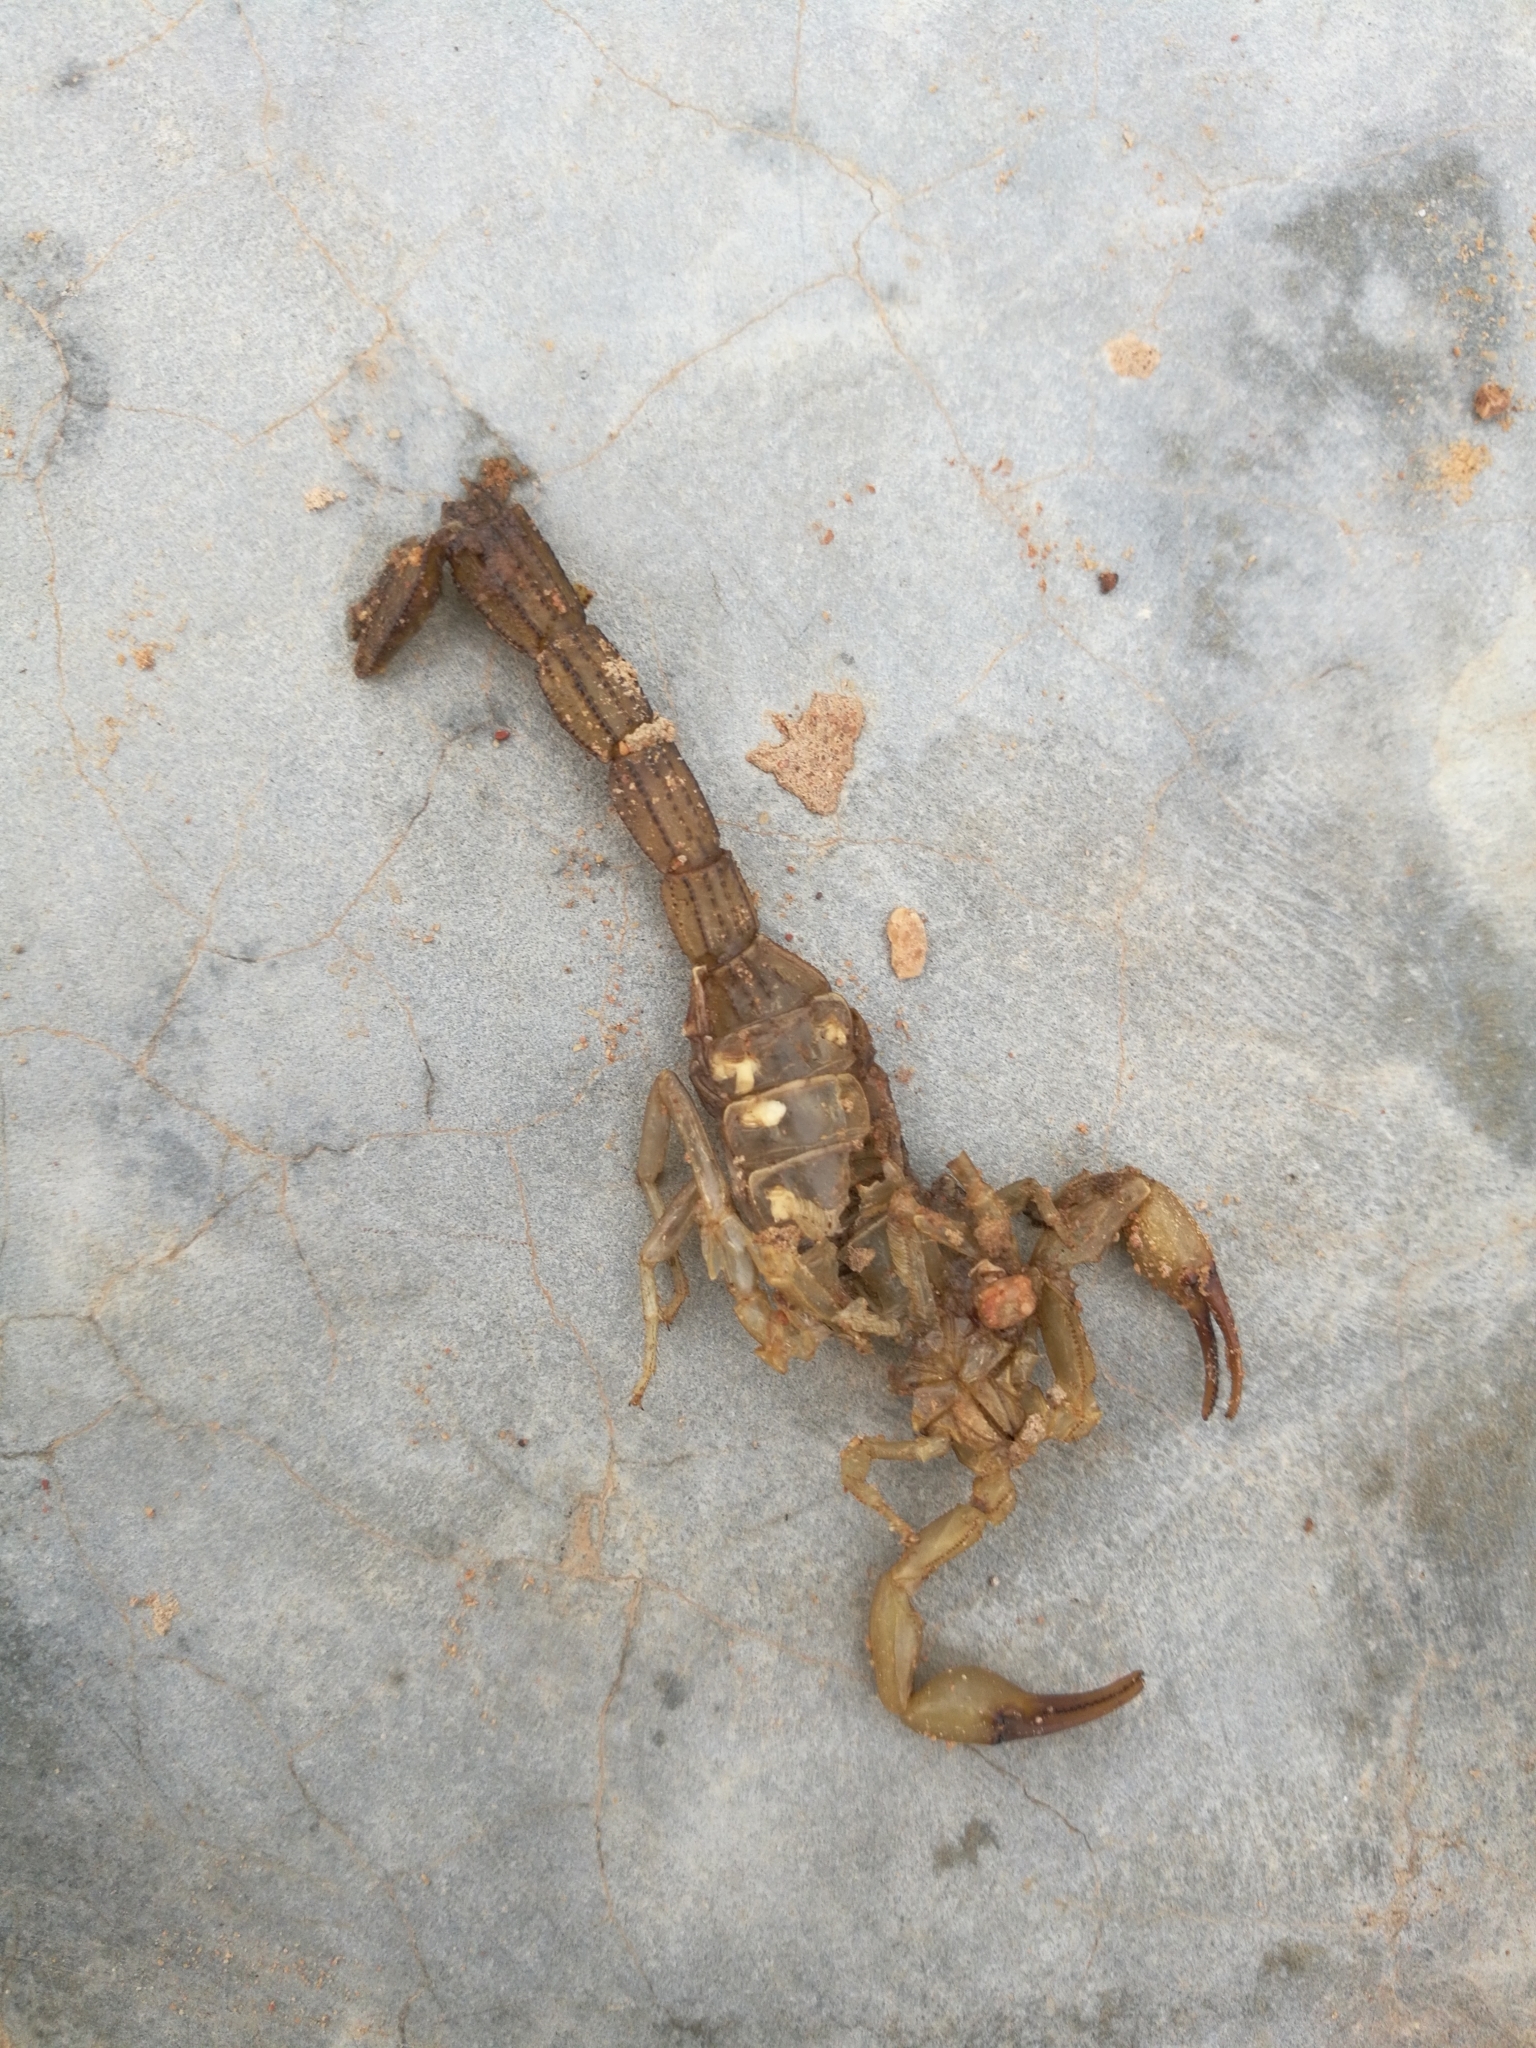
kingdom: Animalia
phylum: Arthropoda
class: Arachnida
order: Scorpiones
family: Buthidae
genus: Hottentotta
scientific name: Hottentotta hottentotta
